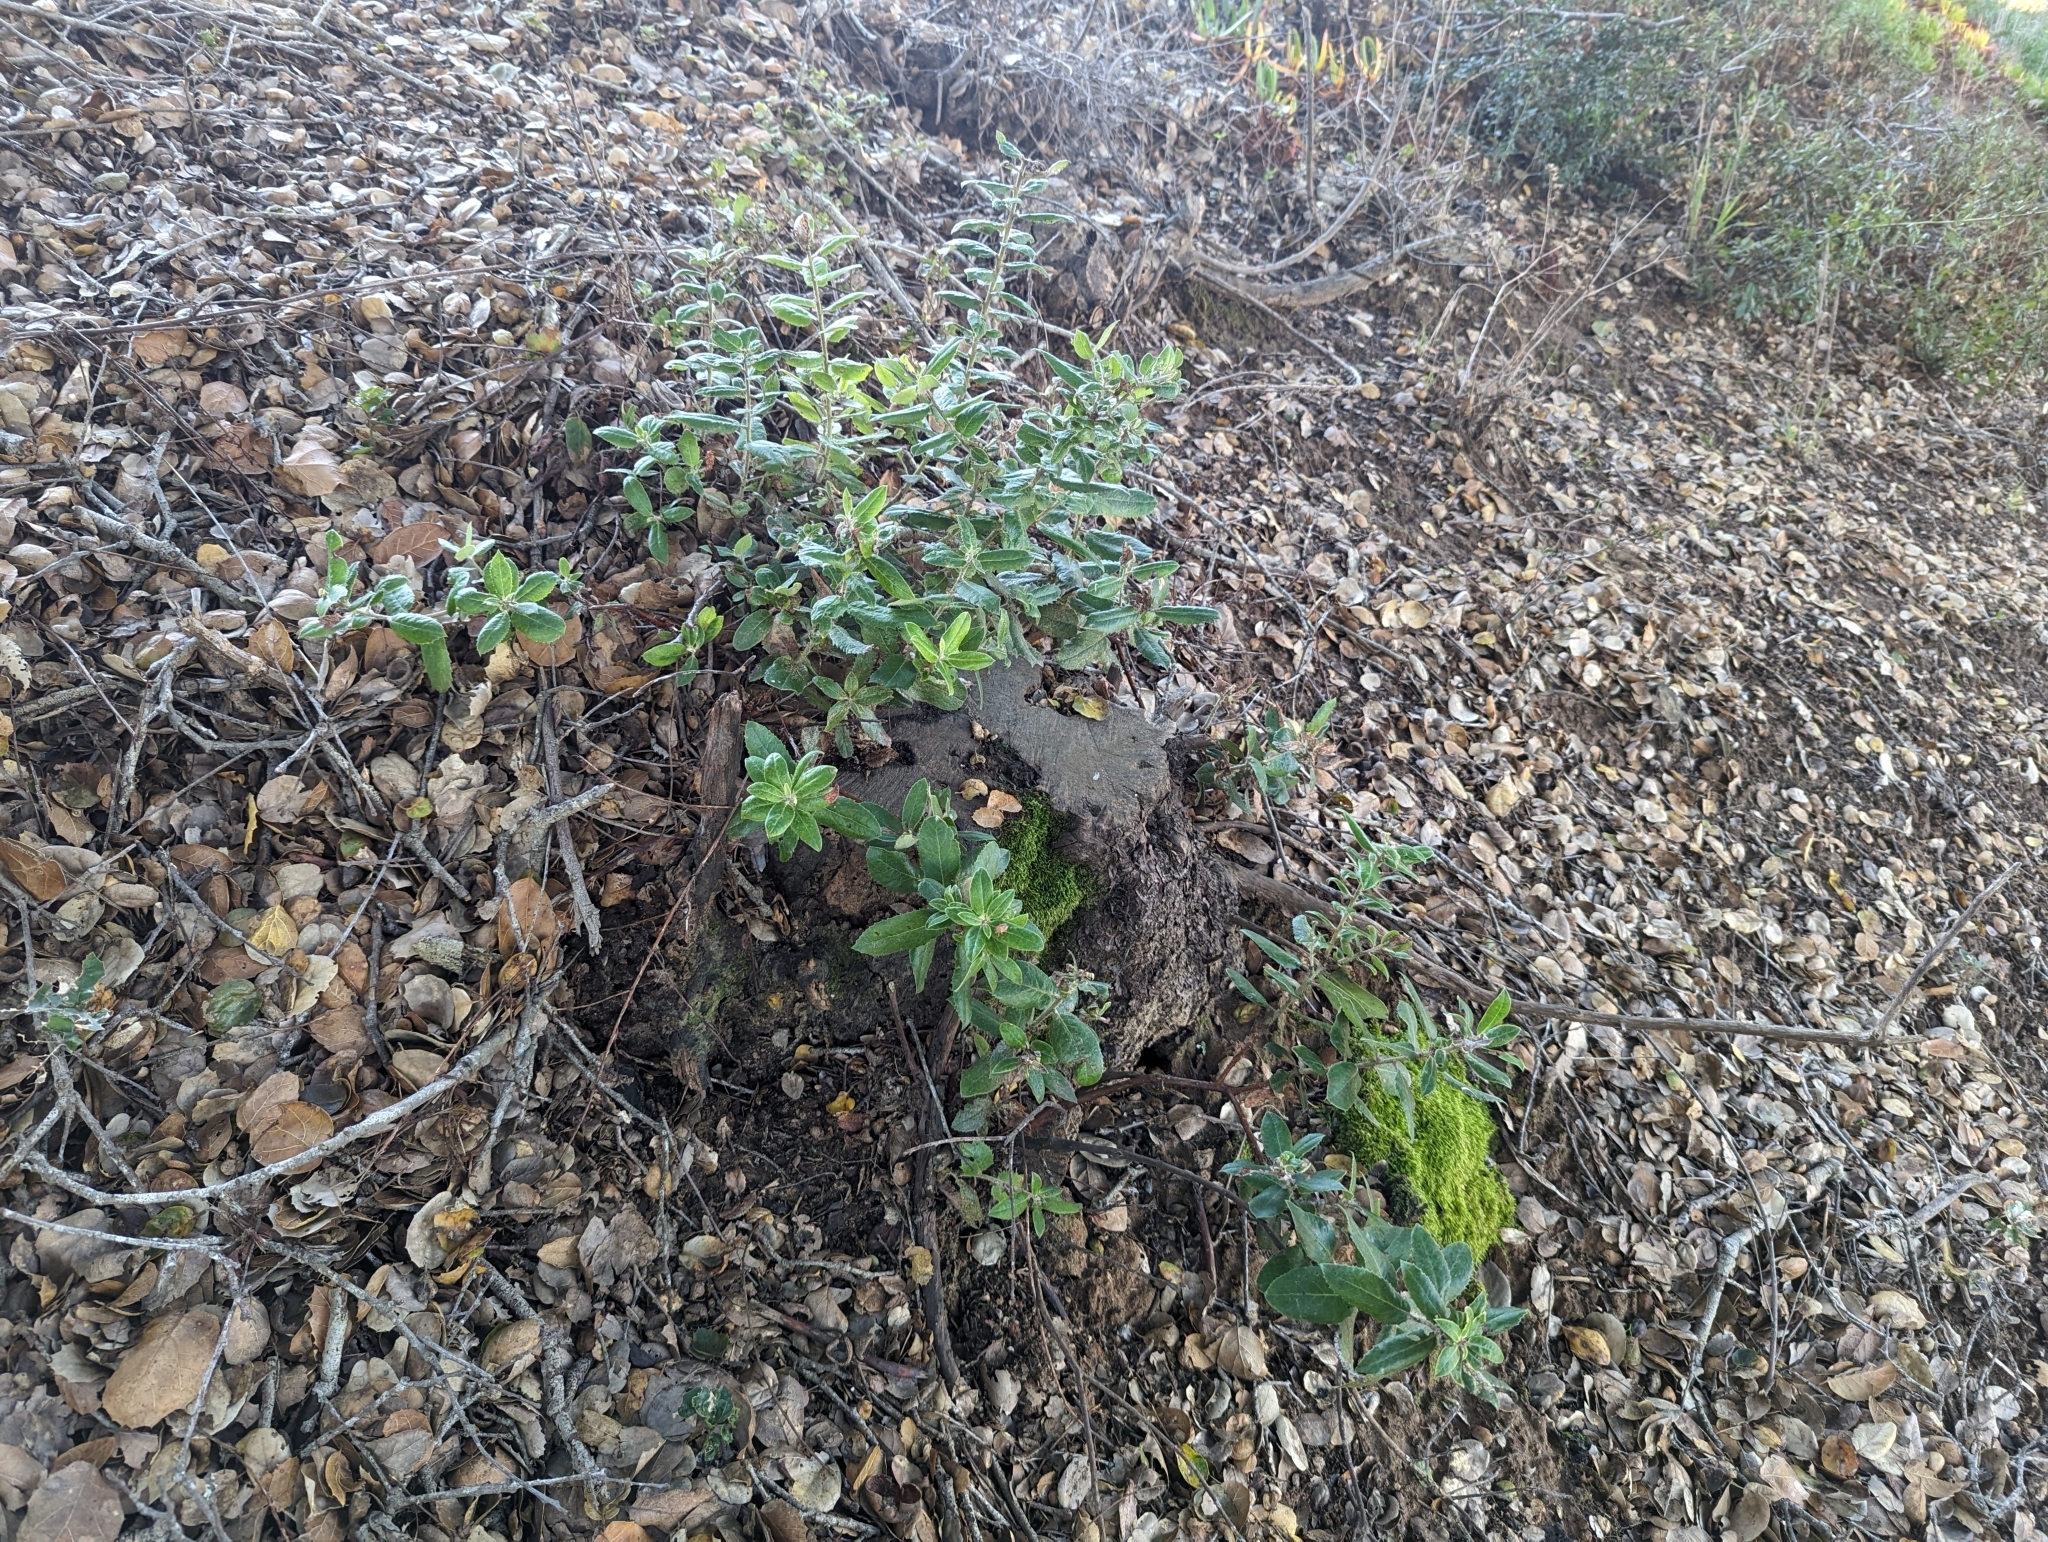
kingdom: Plantae
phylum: Tracheophyta
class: Magnoliopsida
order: Ericales
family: Ericaceae
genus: Arctostaphylos
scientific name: Arctostaphylos crustacea
